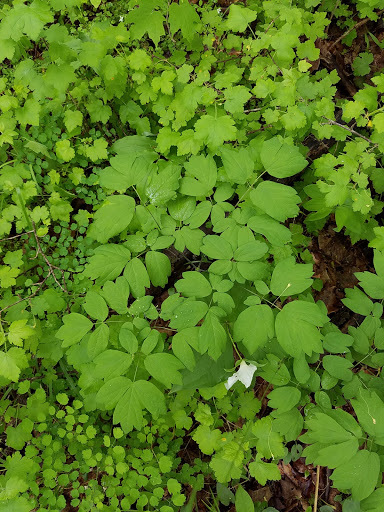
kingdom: Plantae
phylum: Tracheophyta
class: Magnoliopsida
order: Ranunculales
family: Berberidaceae
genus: Caulophyllum
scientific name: Caulophyllum thalictroides
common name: Blue cohosh
